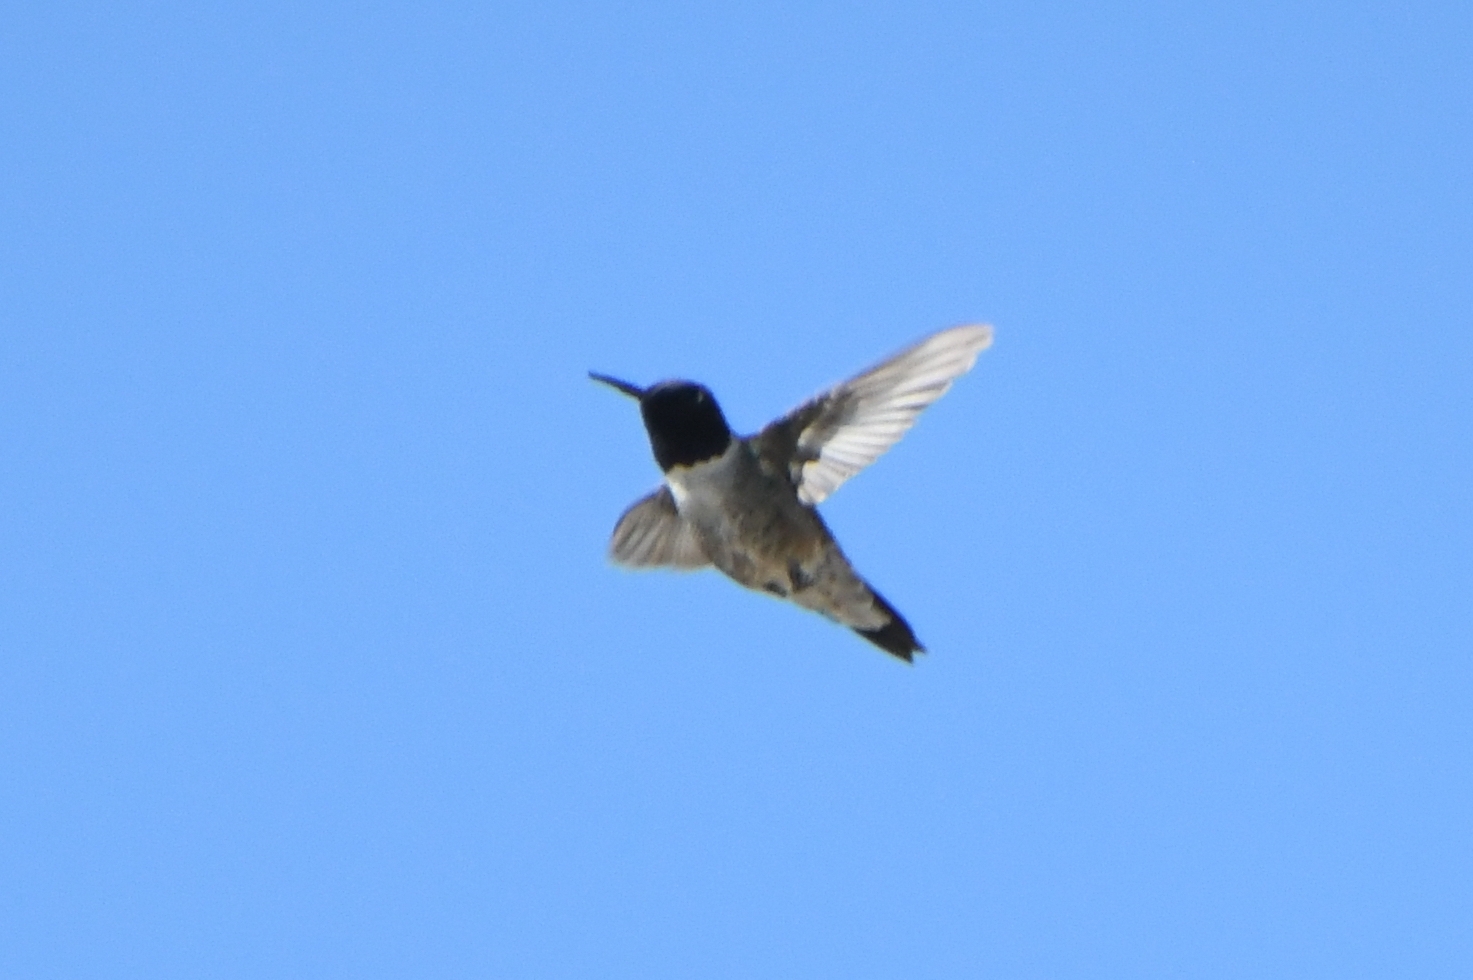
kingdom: Animalia
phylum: Chordata
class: Aves
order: Apodiformes
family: Trochilidae
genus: Archilochus
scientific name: Archilochus alexandri
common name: Black-chinned hummingbird
